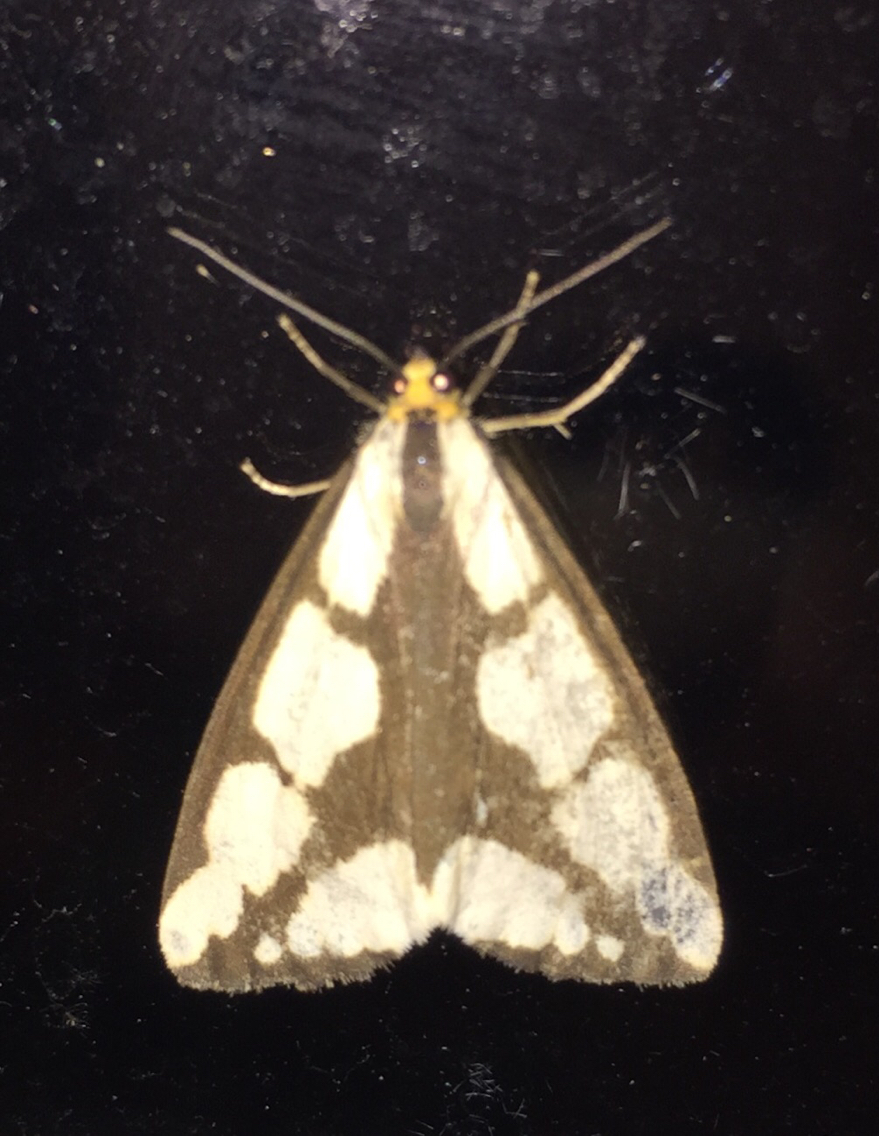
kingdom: Animalia
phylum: Arthropoda
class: Insecta
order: Lepidoptera
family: Erebidae
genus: Haploa
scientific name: Haploa lecontei
